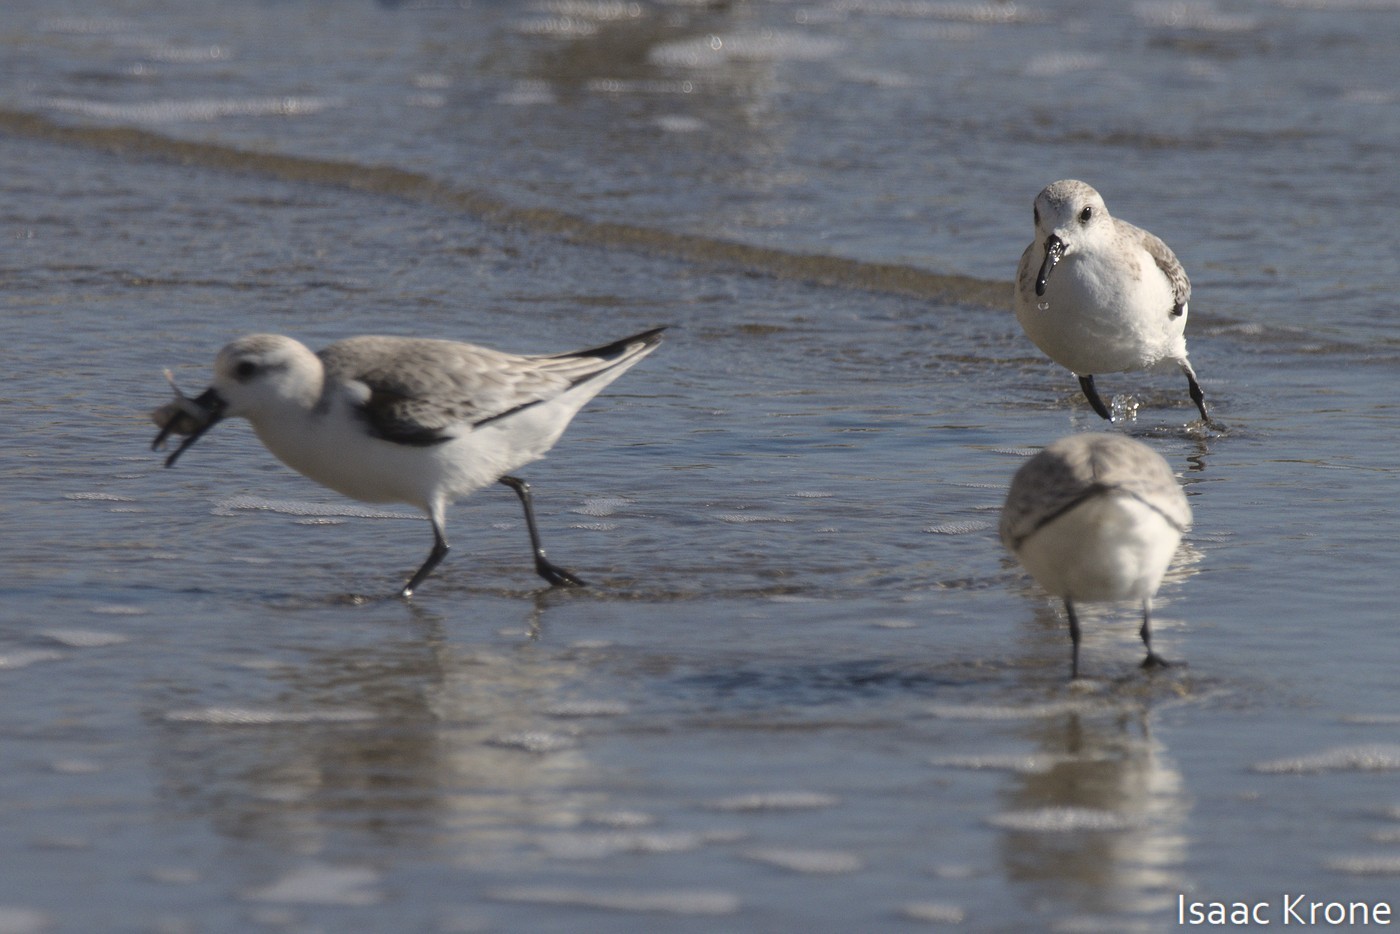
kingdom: Animalia
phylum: Chordata
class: Aves
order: Charadriiformes
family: Scolopacidae
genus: Calidris
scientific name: Calidris alba
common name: Sanderling
